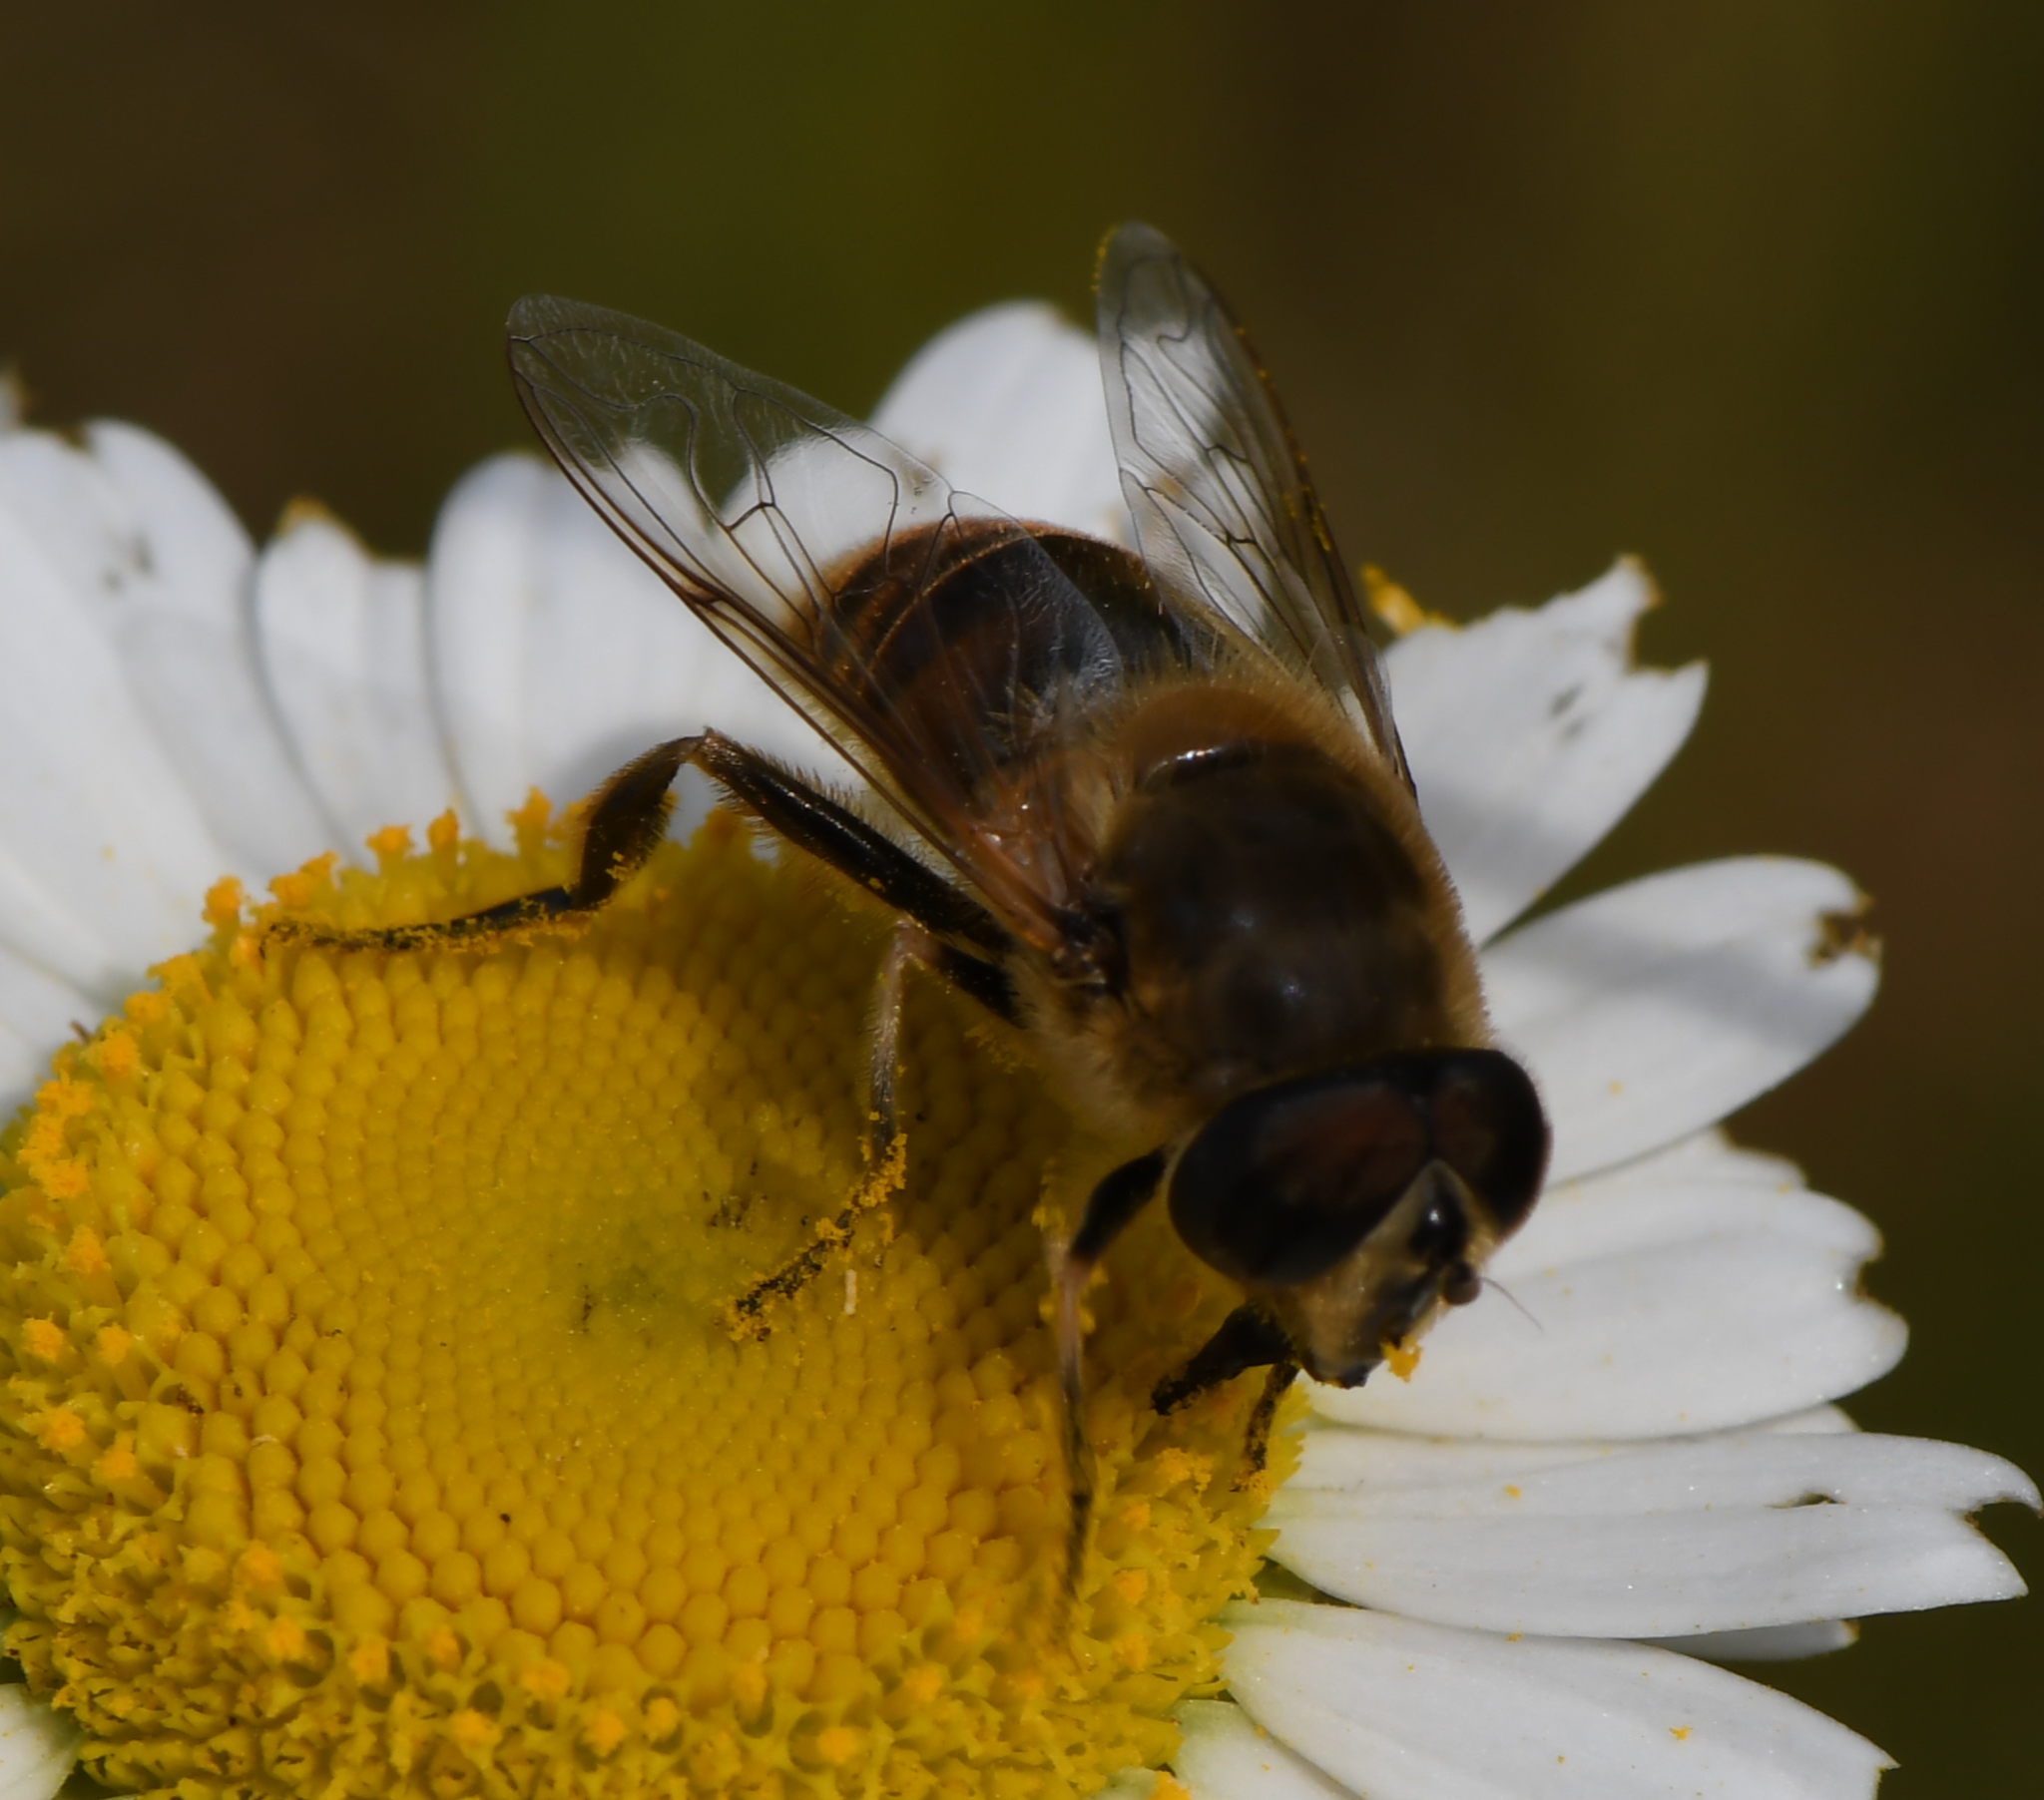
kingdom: Animalia
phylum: Arthropoda
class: Insecta
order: Diptera
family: Syrphidae
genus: Eristalis
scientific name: Eristalis tenax
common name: Drone fly
